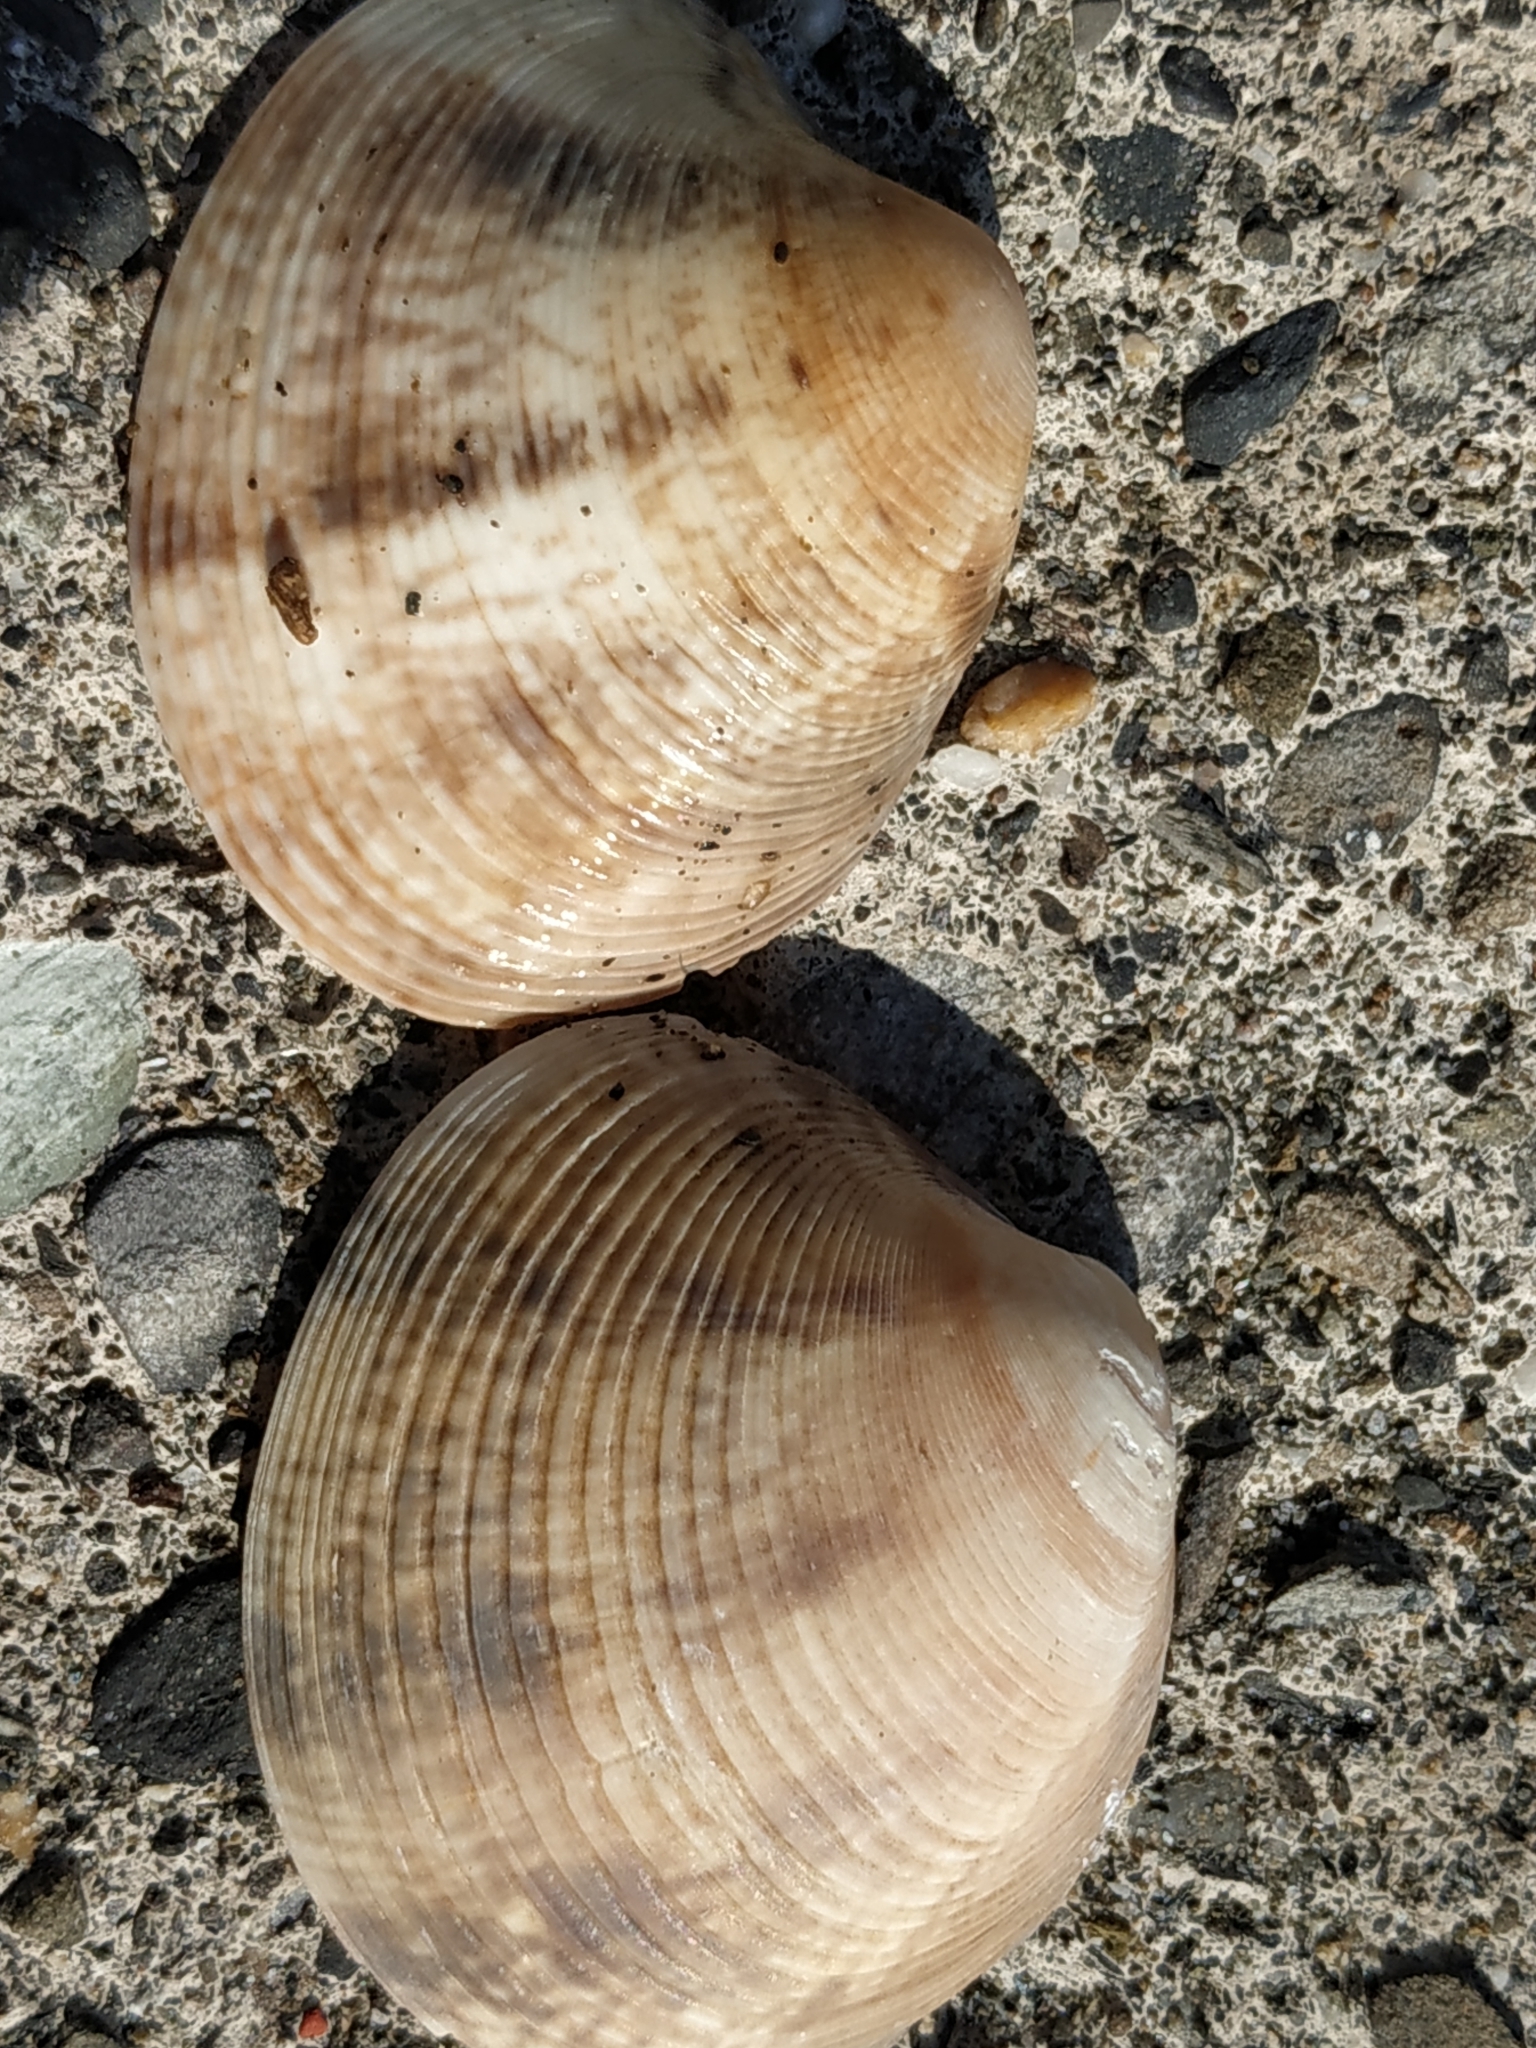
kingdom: Animalia
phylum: Mollusca
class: Bivalvia
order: Venerida
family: Veneridae
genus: Marcia
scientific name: Marcia hiantina
